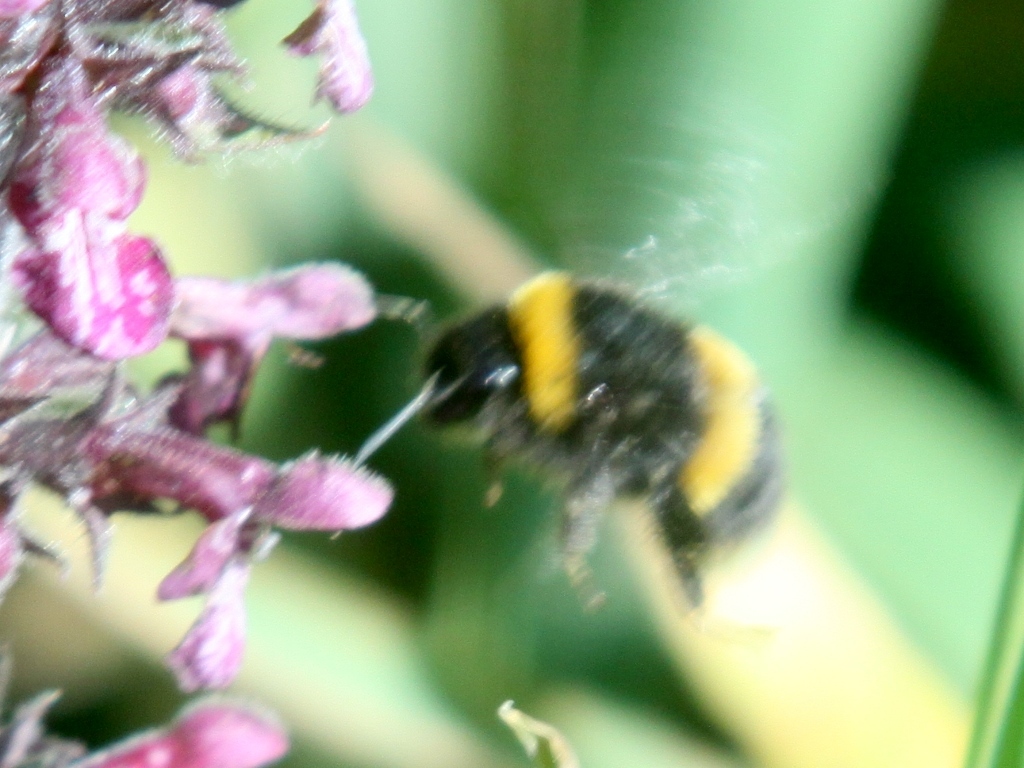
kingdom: Animalia
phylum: Arthropoda
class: Insecta
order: Hymenoptera
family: Apidae
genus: Bombus
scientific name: Bombus terrestris
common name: Buff-tailed bumblebee
